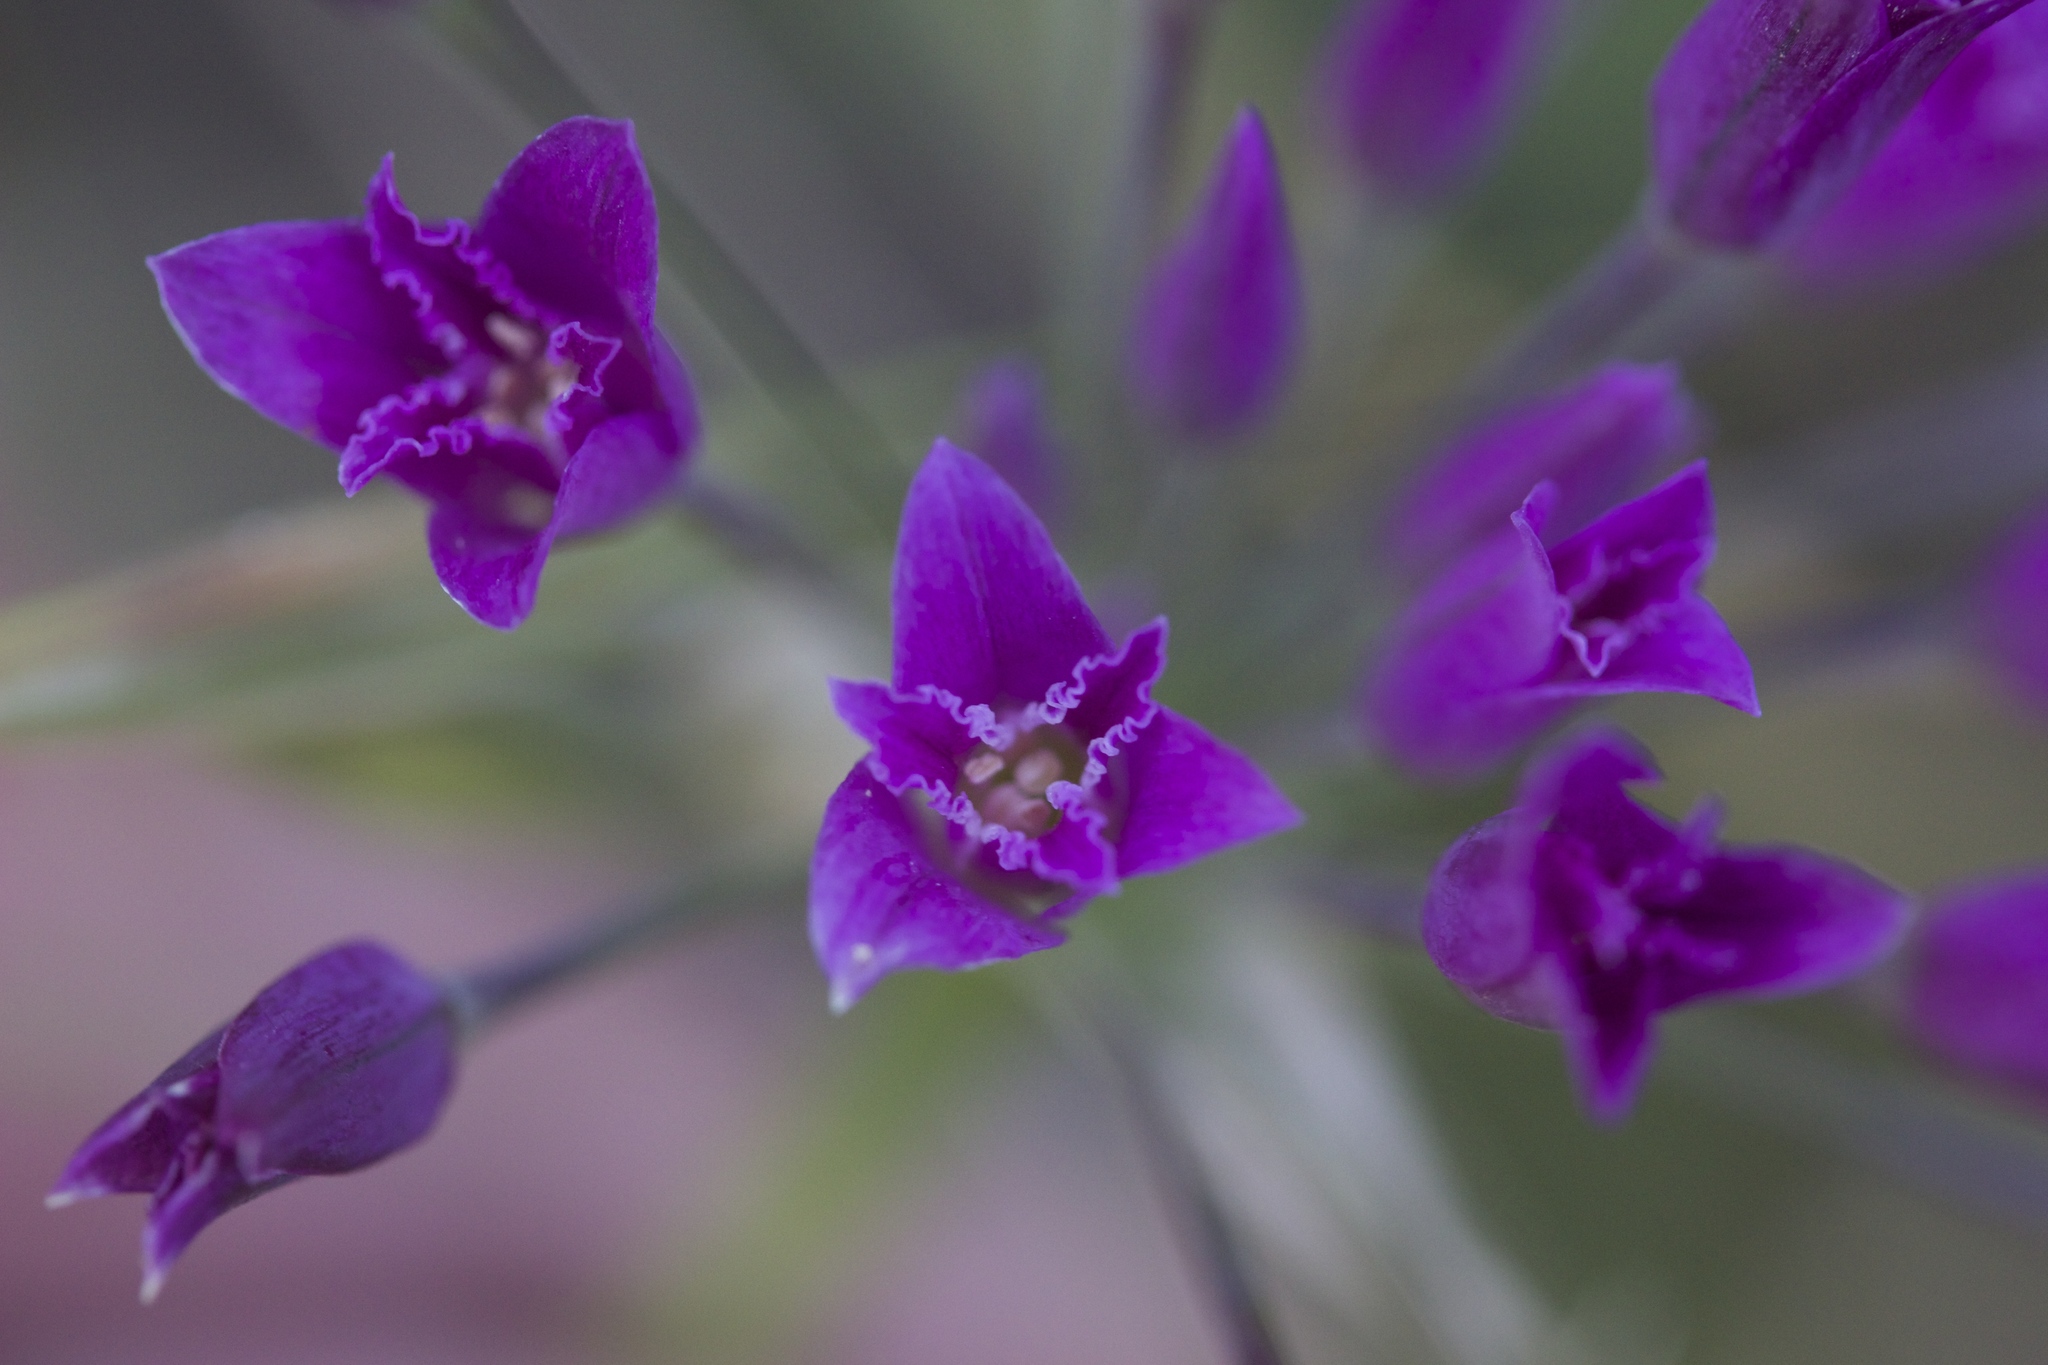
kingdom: Plantae
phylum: Tracheophyta
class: Liliopsida
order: Asparagales
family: Amaryllidaceae
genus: Allium
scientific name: Allium crispum
